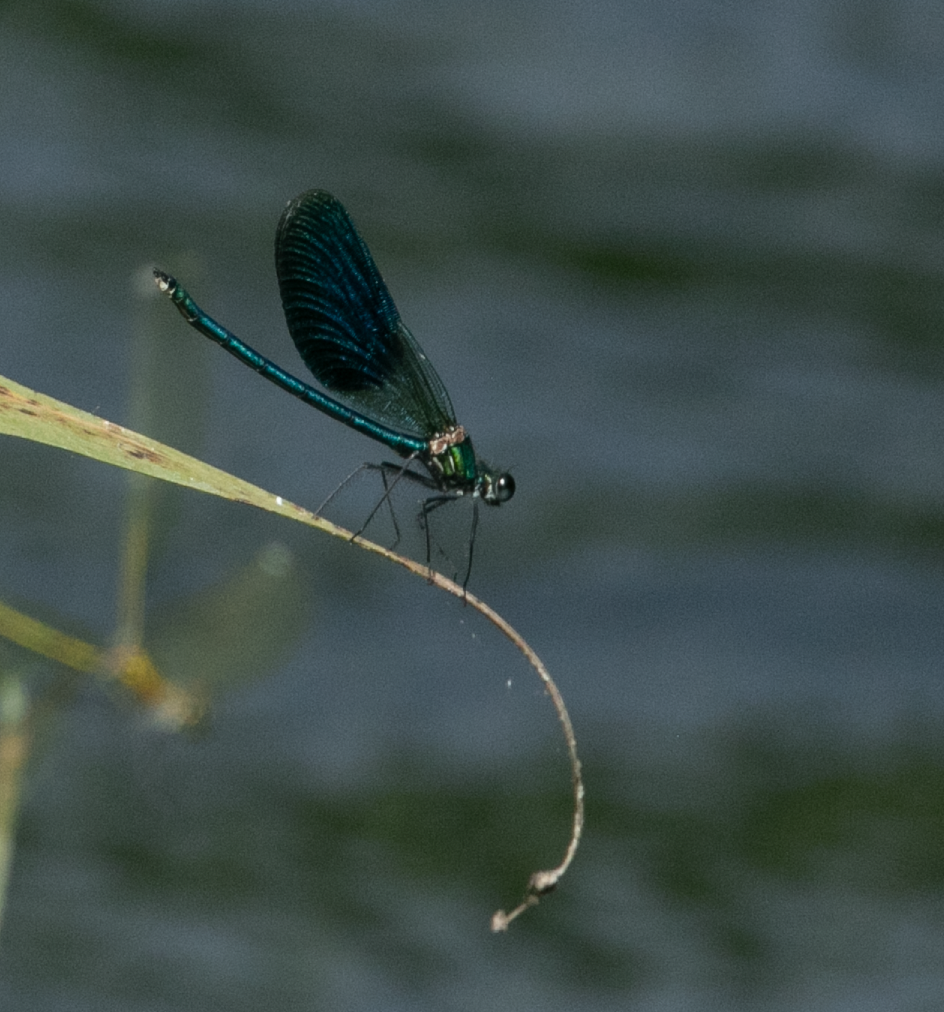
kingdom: Animalia
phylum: Arthropoda
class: Insecta
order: Odonata
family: Calopterygidae
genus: Calopteryx
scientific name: Calopteryx splendens
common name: Banded demoiselle
